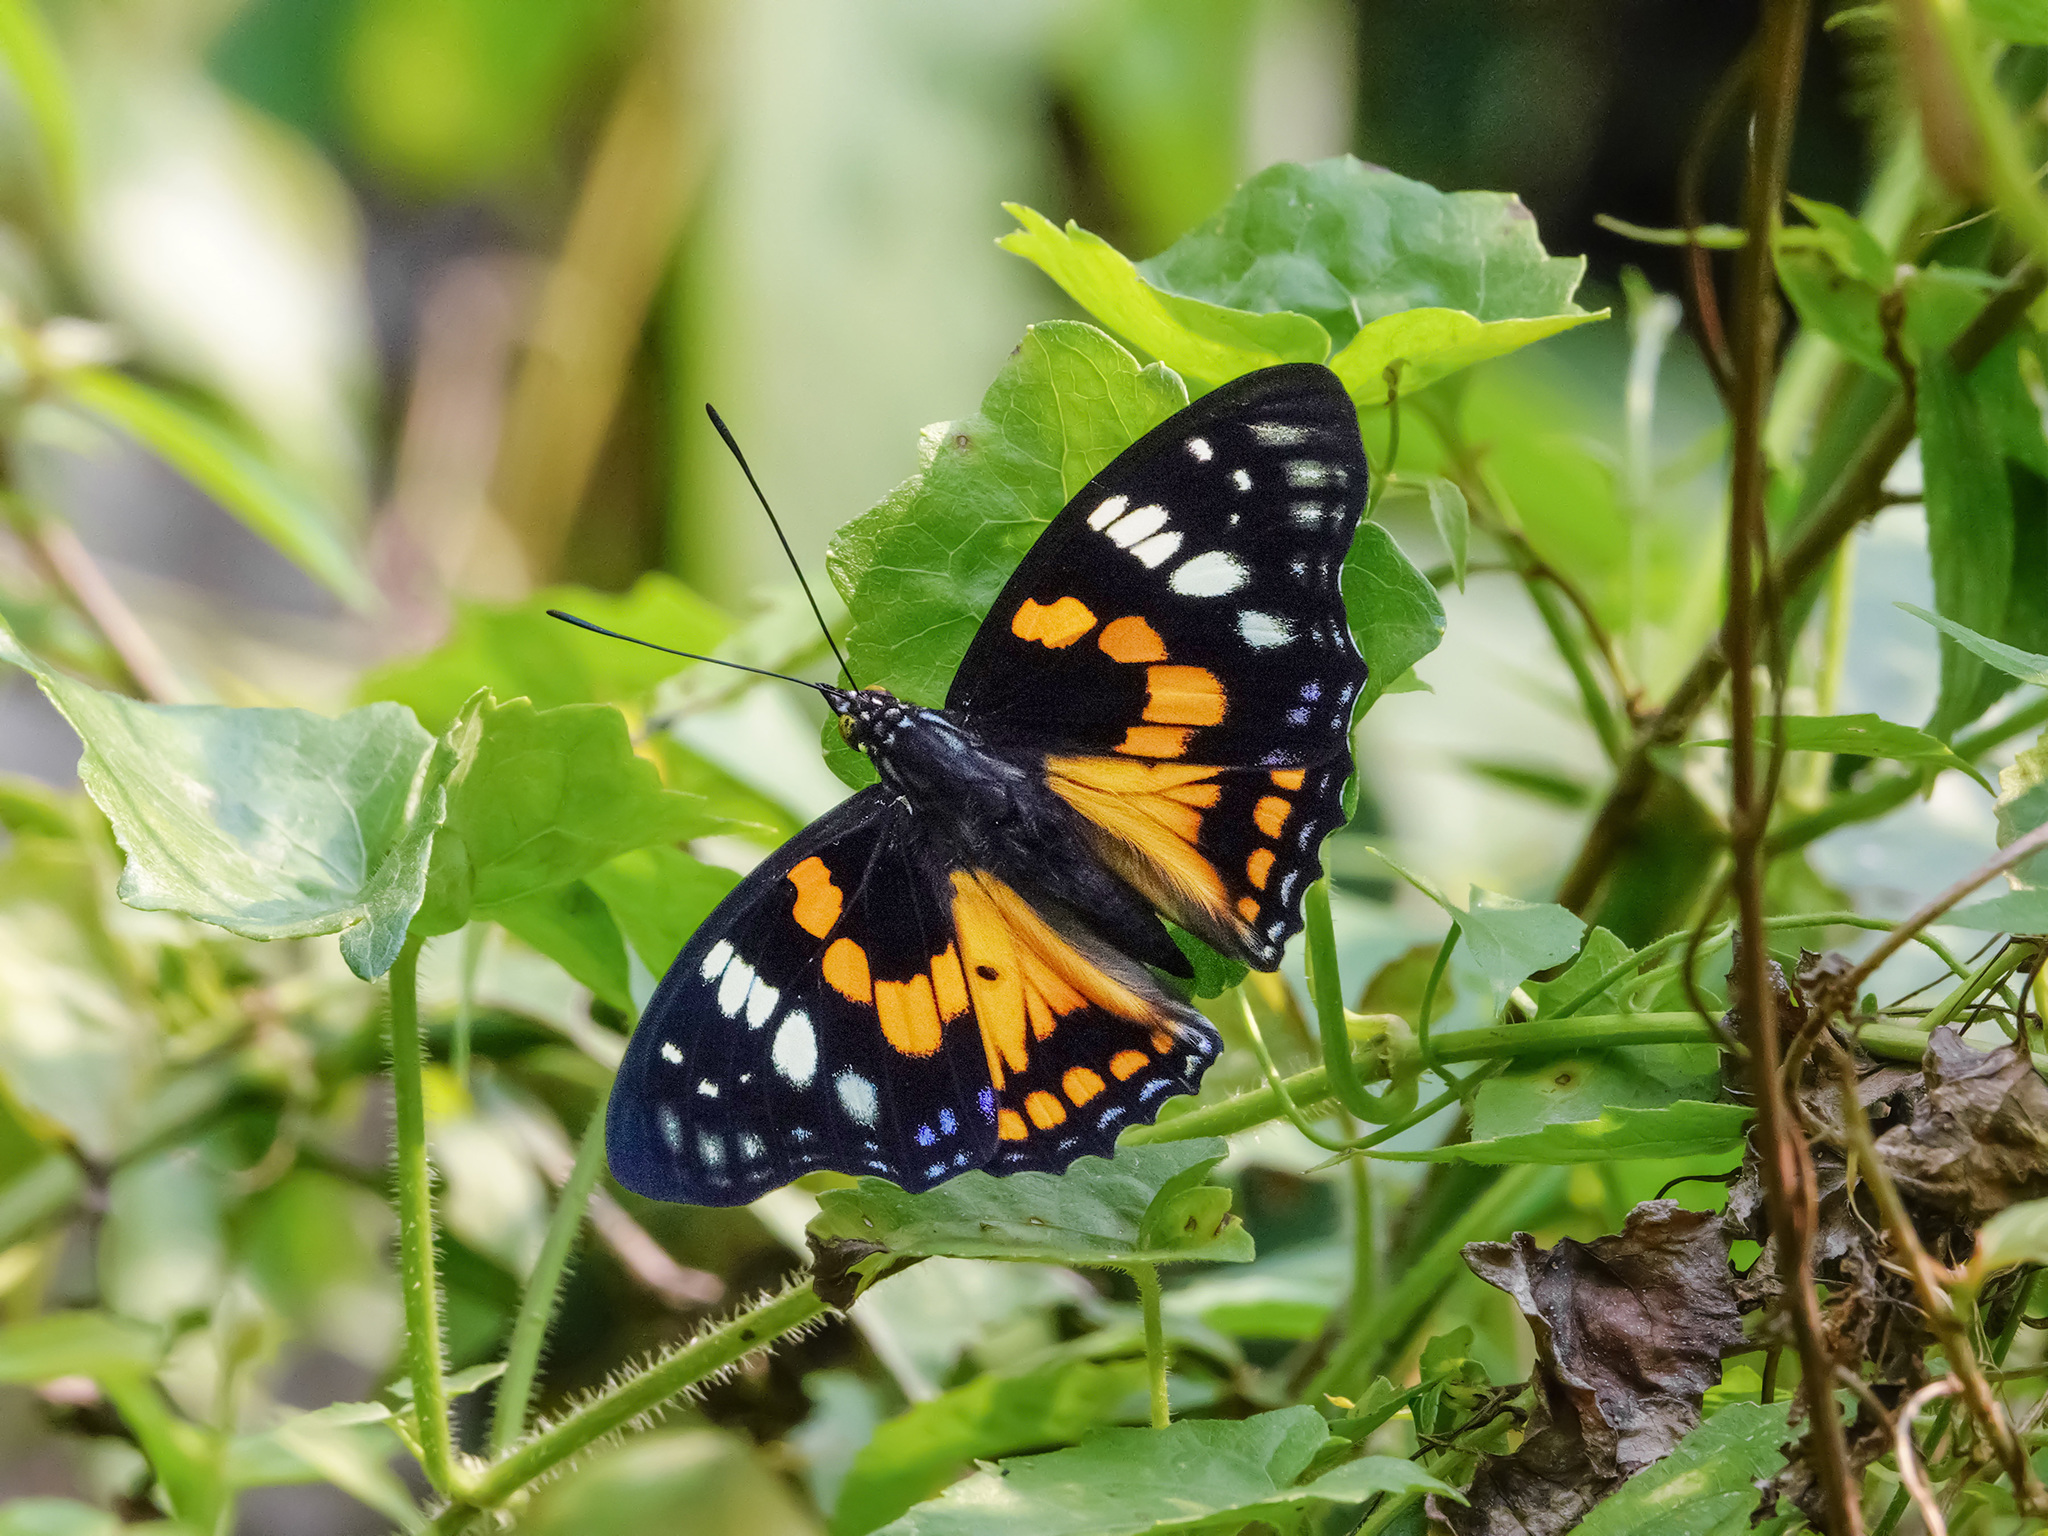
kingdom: Animalia
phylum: Arthropoda
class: Insecta
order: Lepidoptera
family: Nymphalidae
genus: Sephisa
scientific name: Sephisa chandra
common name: Eastern courtier
